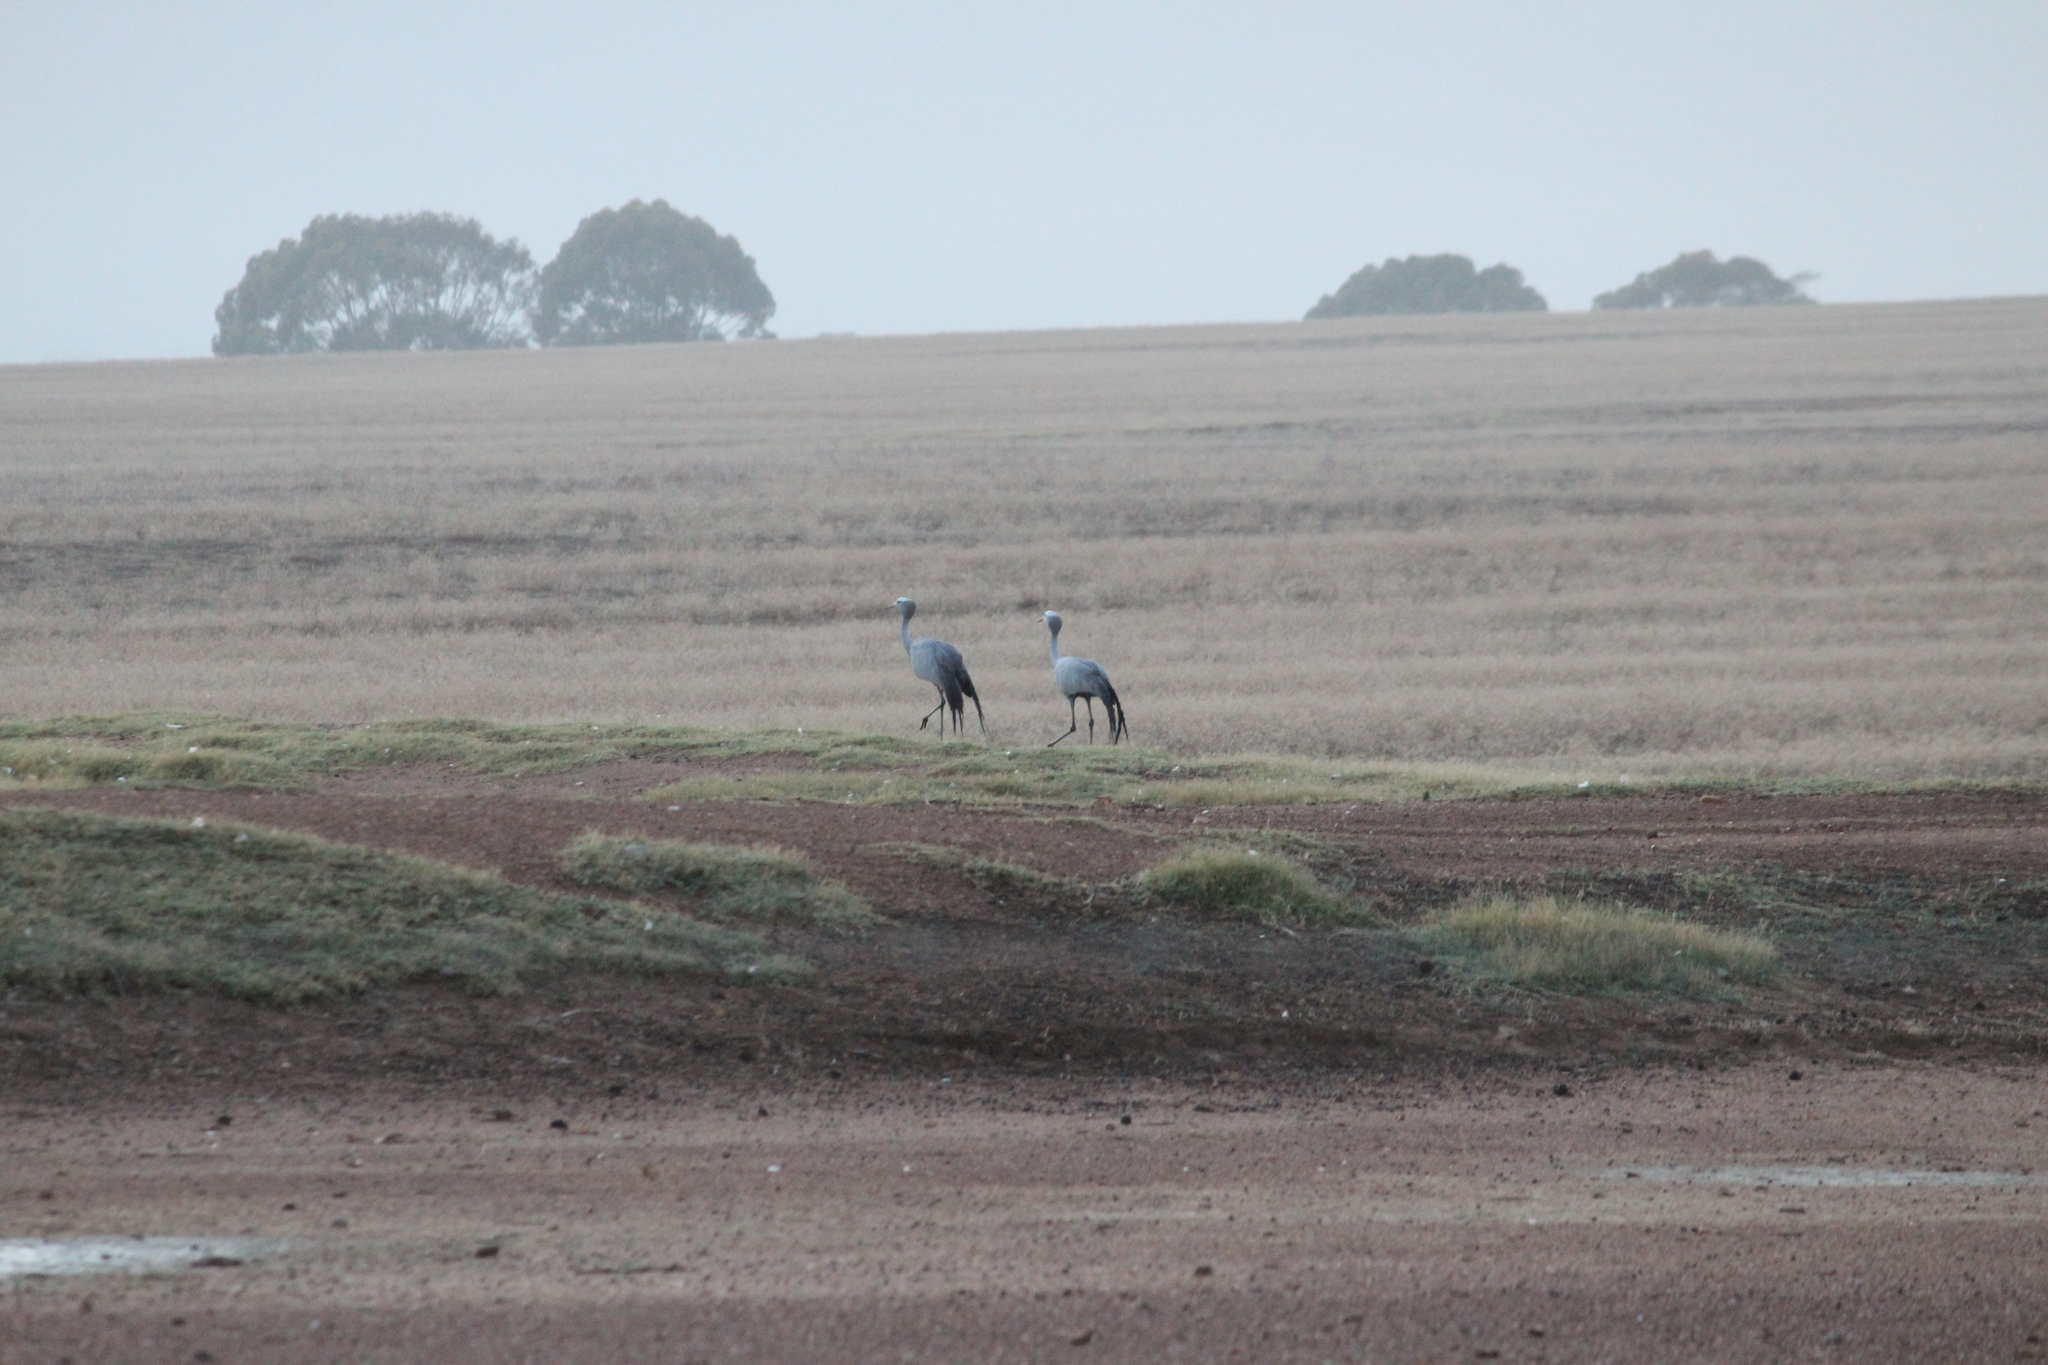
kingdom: Animalia
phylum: Chordata
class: Aves
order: Gruiformes
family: Gruidae
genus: Anthropoides
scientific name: Anthropoides paradiseus
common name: Blue crane
